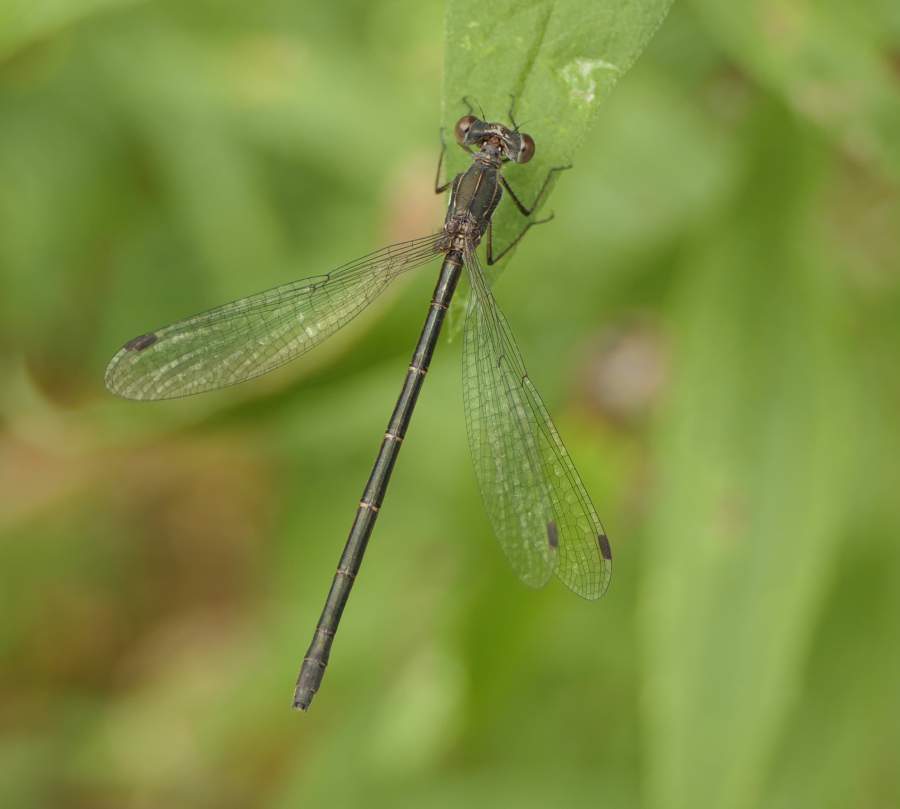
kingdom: Animalia
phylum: Arthropoda
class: Insecta
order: Odonata
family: Lestidae
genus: Lestes
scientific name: Lestes congener
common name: Spotted spreadwing
